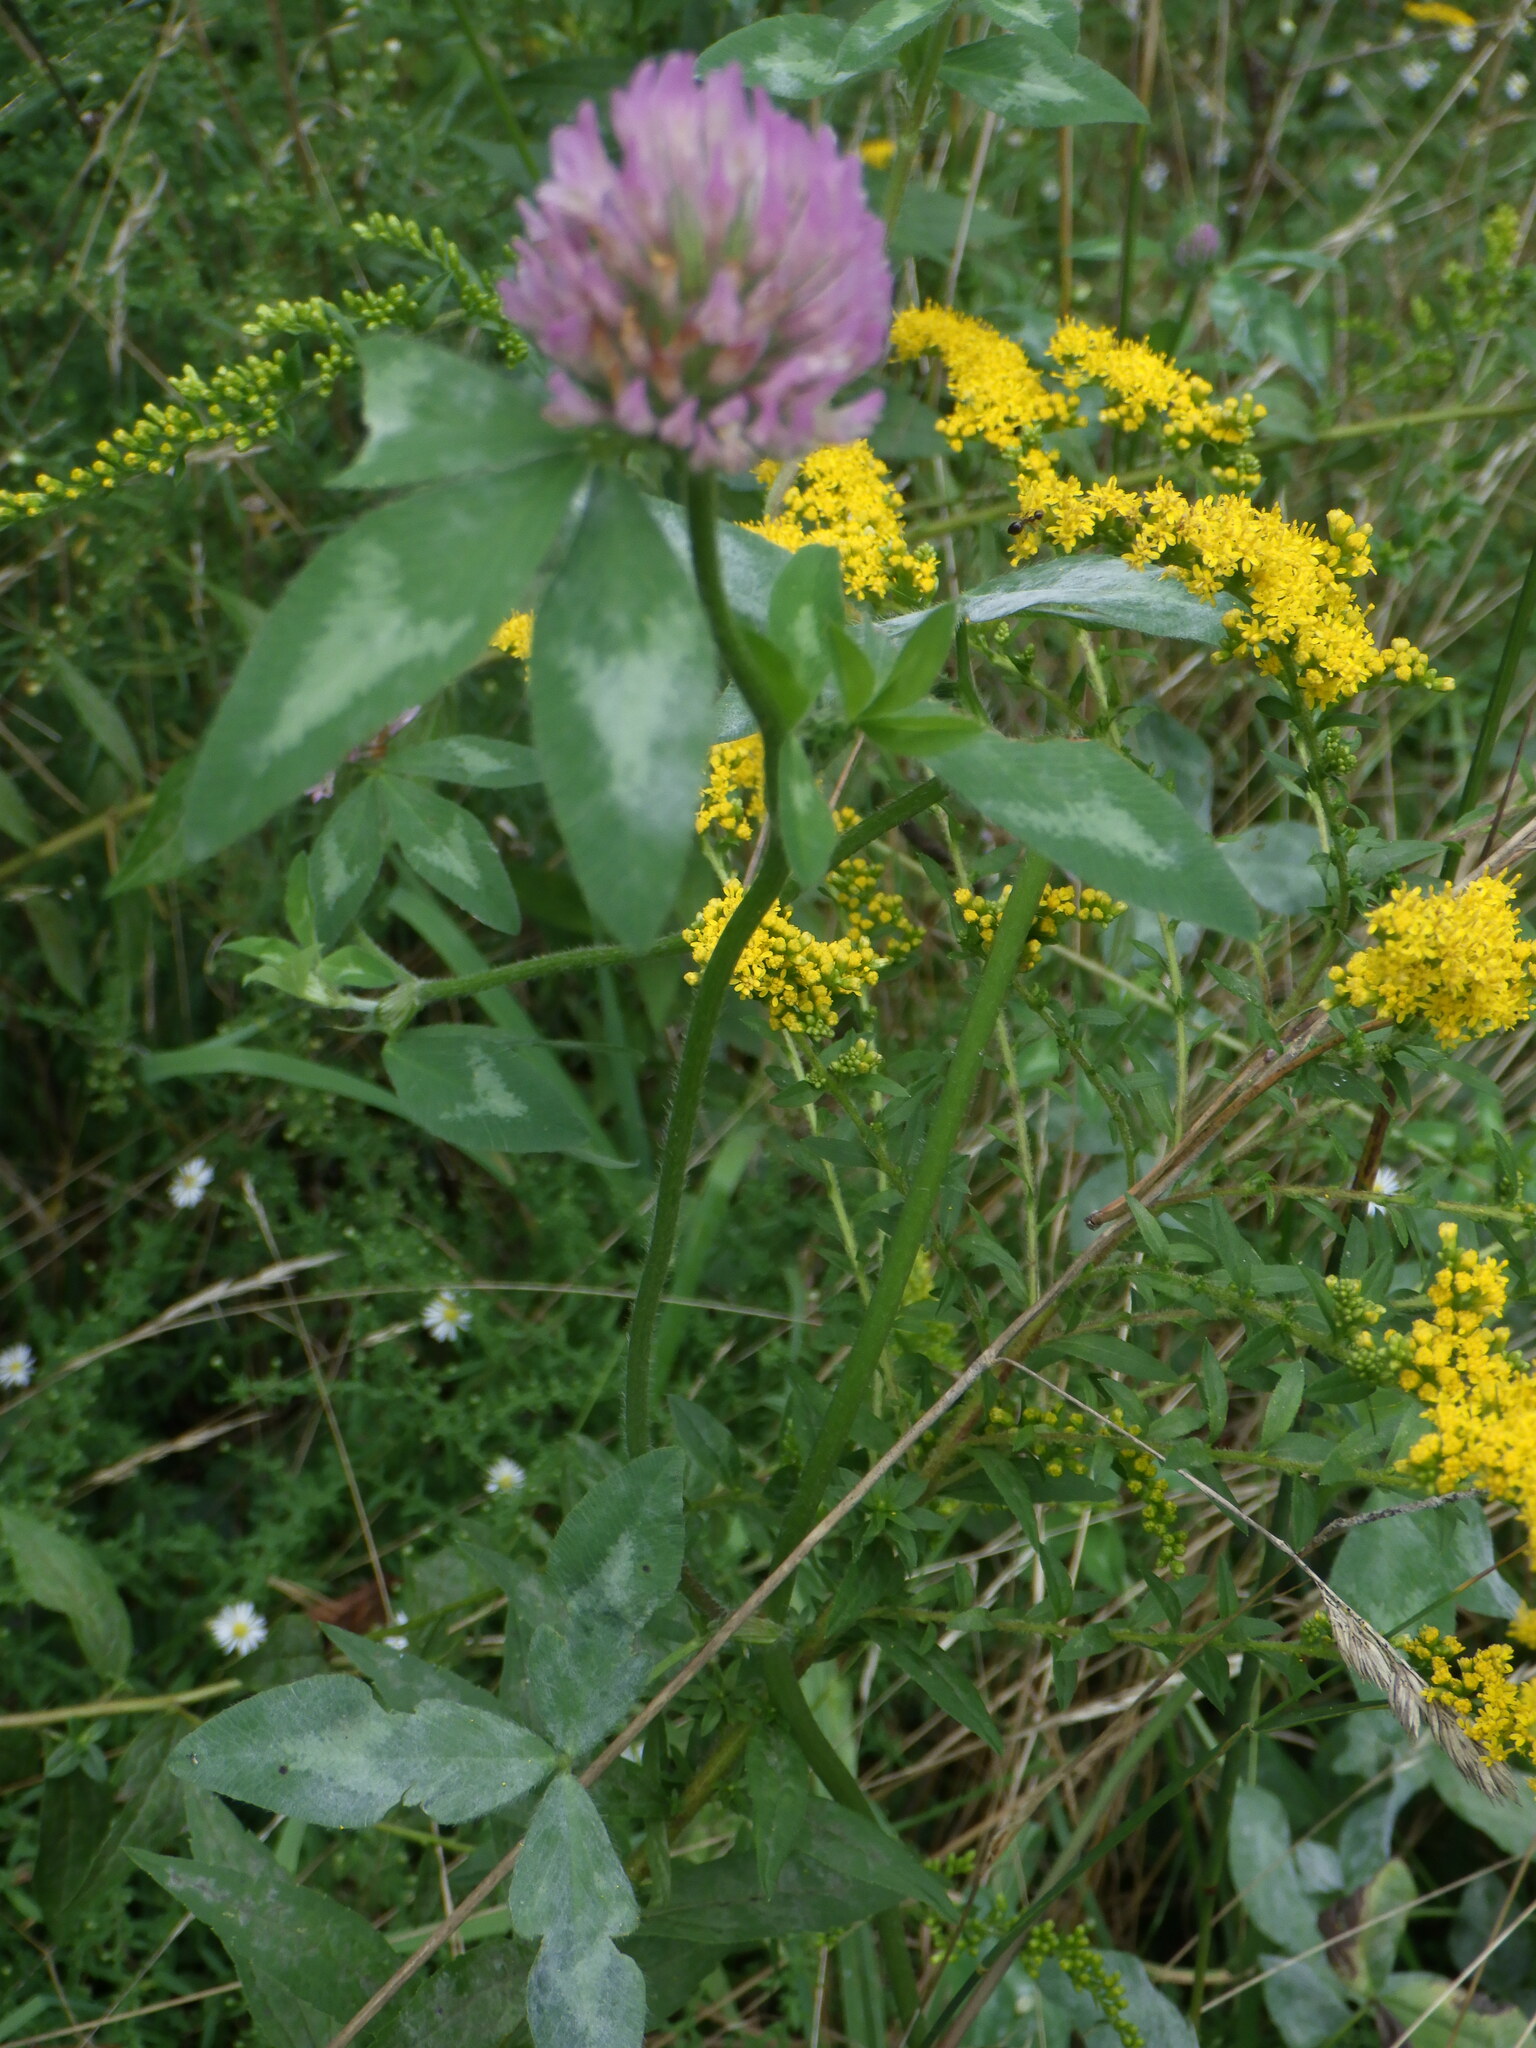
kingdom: Plantae
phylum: Tracheophyta
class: Magnoliopsida
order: Fabales
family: Fabaceae
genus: Trifolium
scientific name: Trifolium pratense
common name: Red clover
